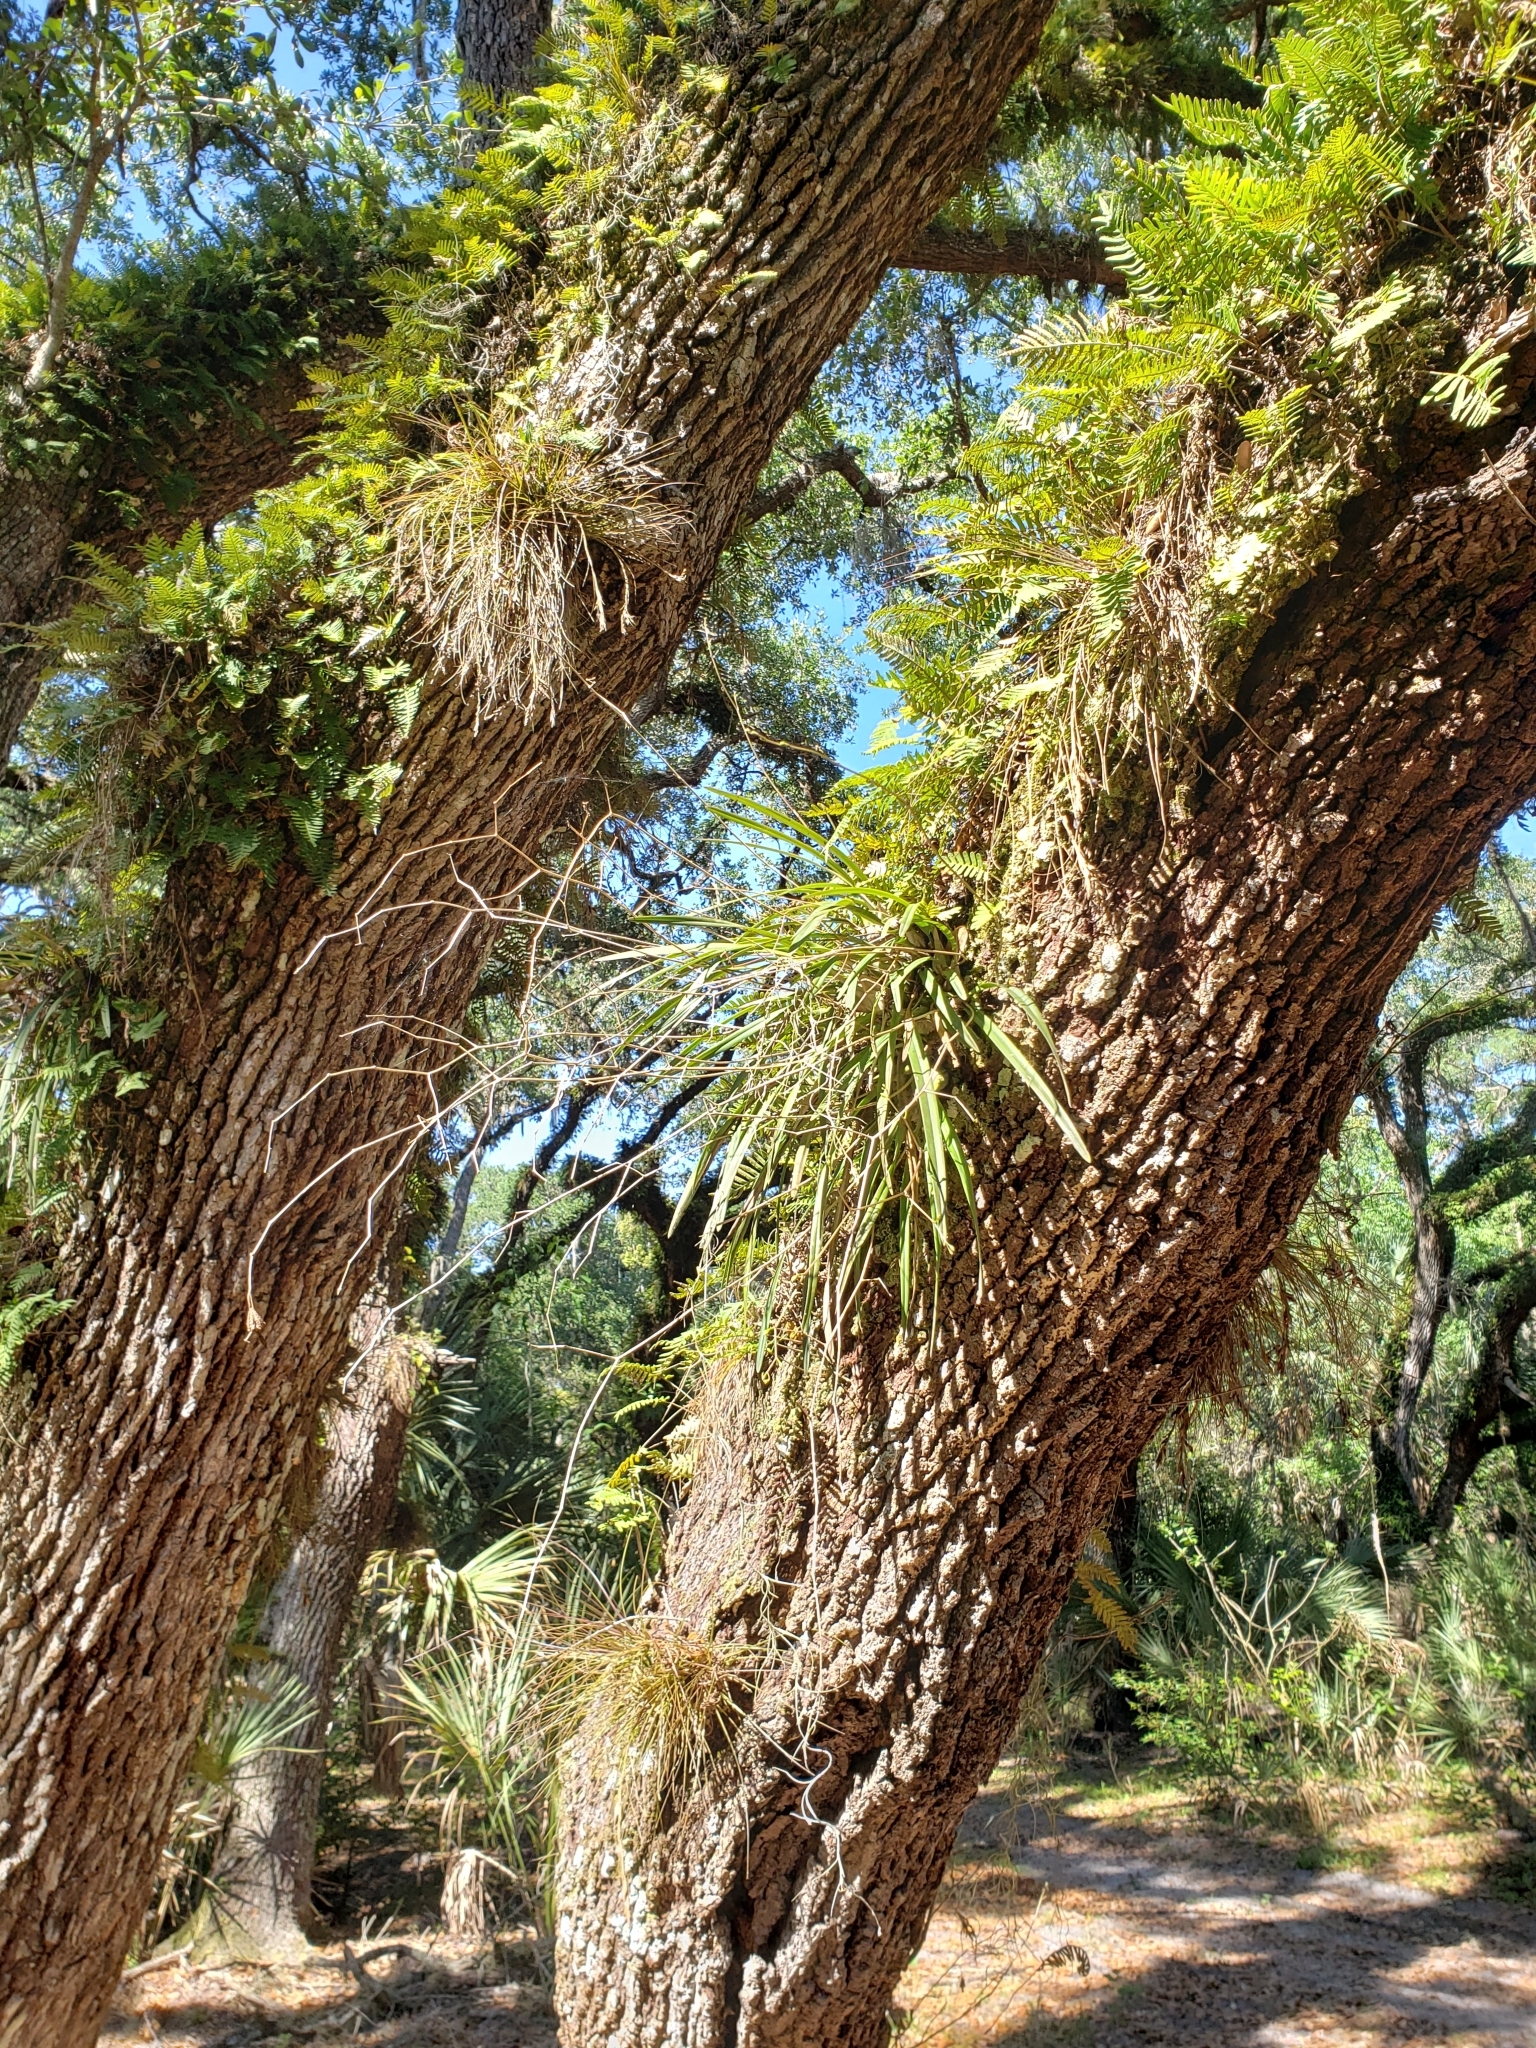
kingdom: Plantae
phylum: Tracheophyta
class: Liliopsida
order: Asparagales
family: Orchidaceae
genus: Encyclia
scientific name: Encyclia tampensis
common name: Florida butterfly orchid
